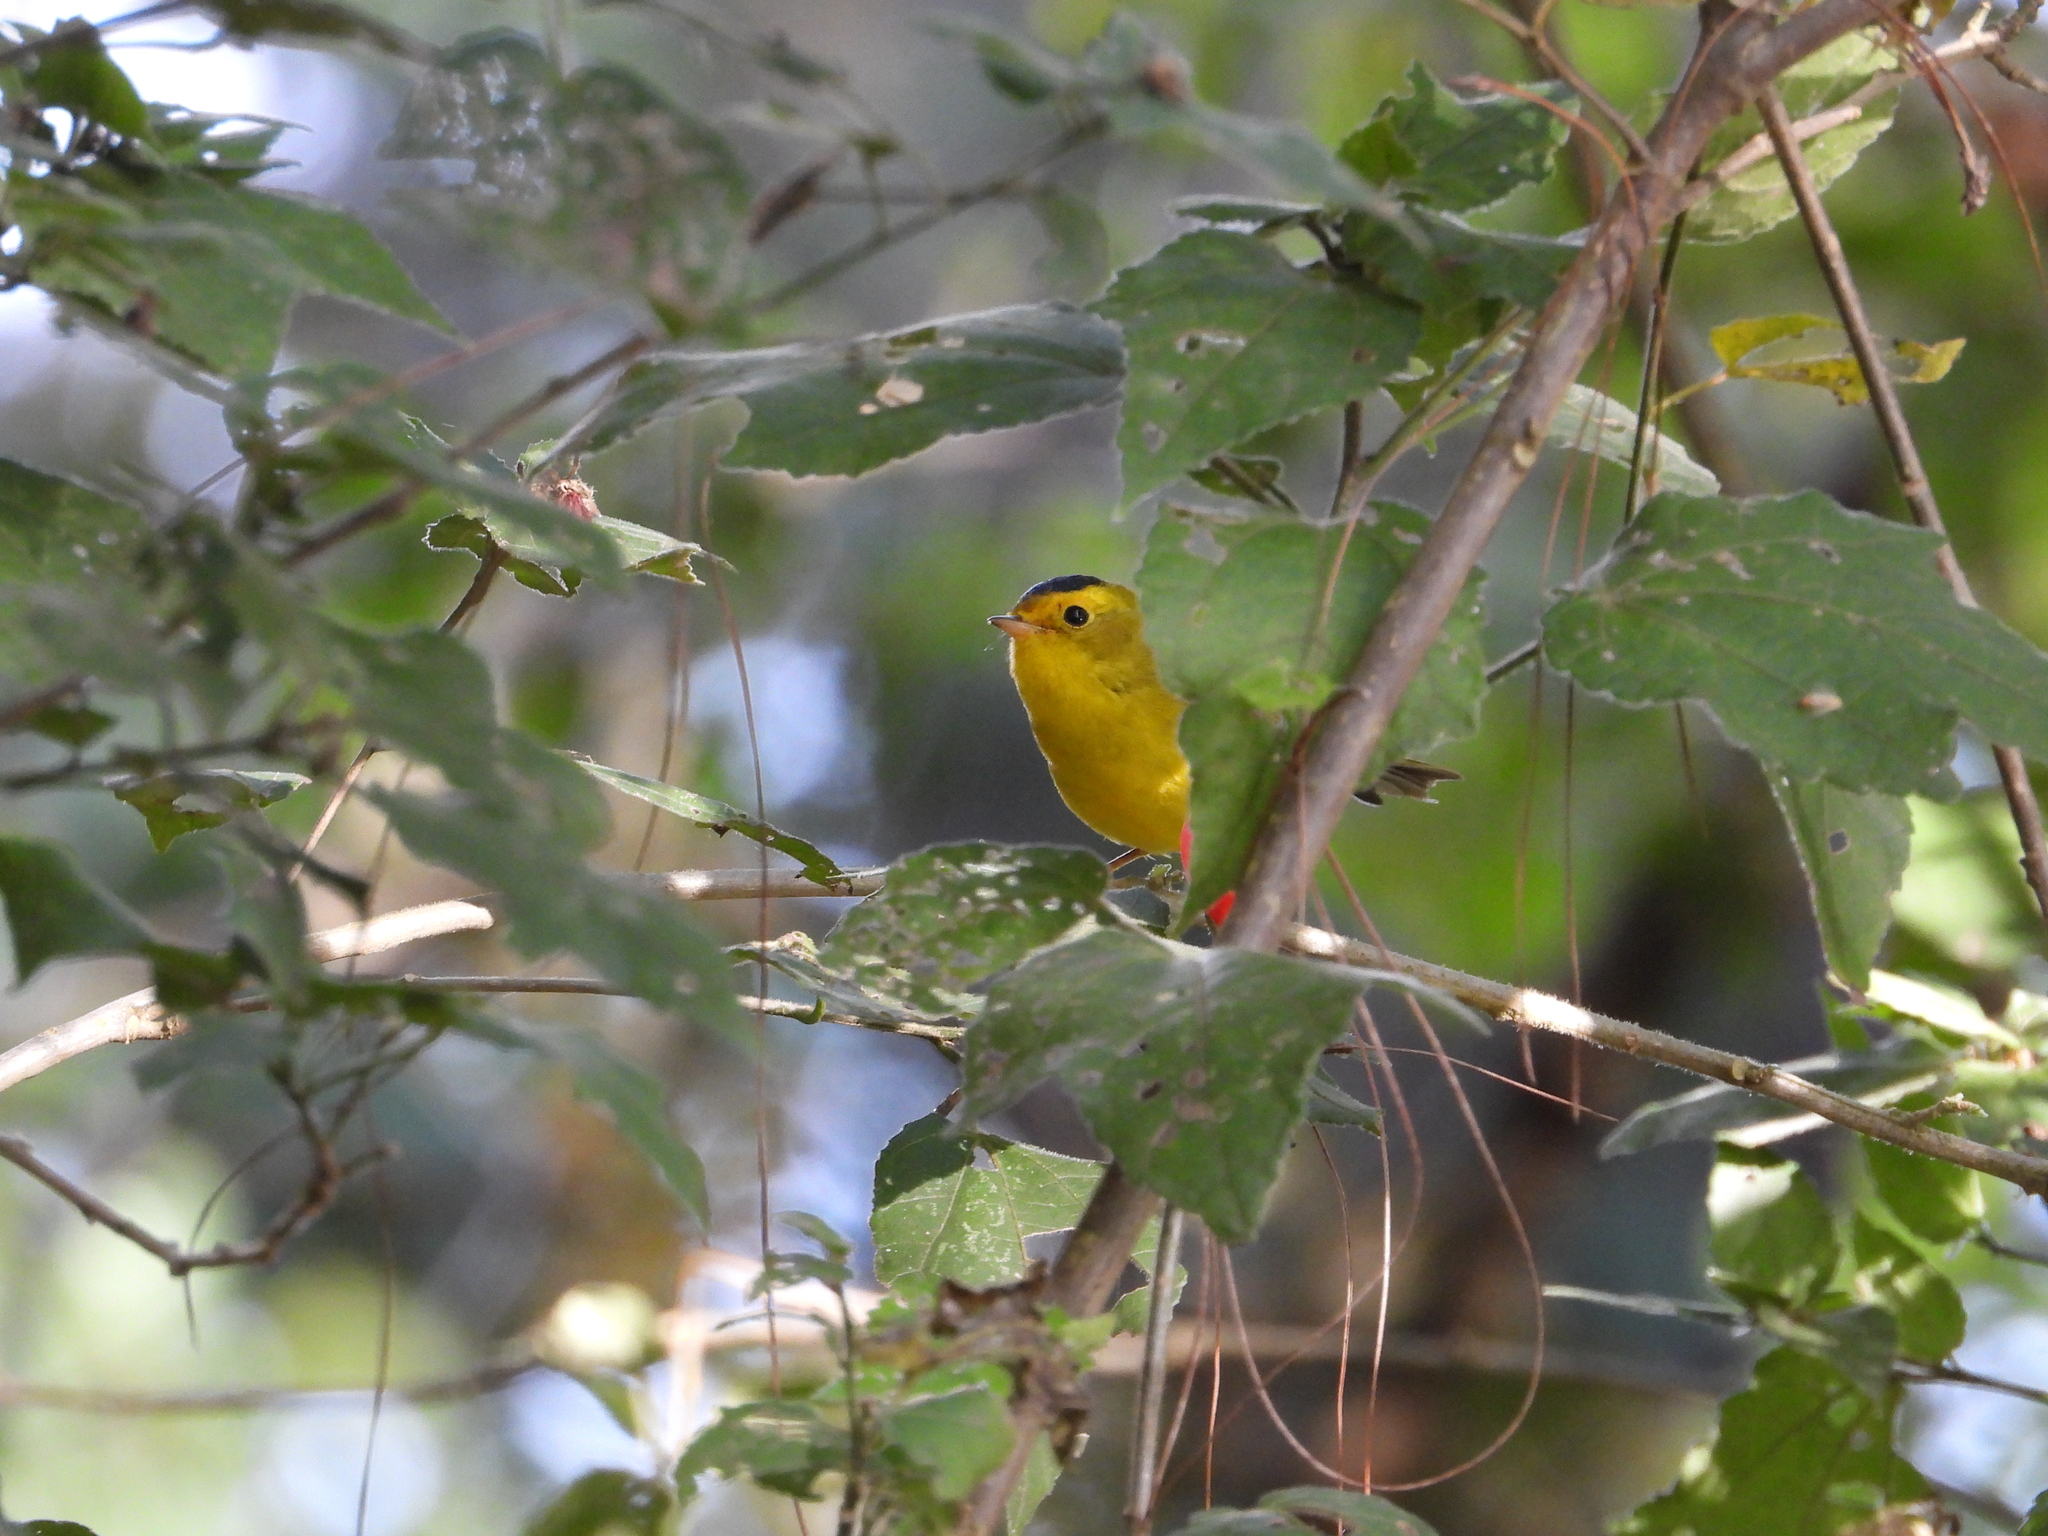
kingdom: Animalia
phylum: Chordata
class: Aves
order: Passeriformes
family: Parulidae
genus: Cardellina
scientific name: Cardellina pusilla
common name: Wilson's warbler
